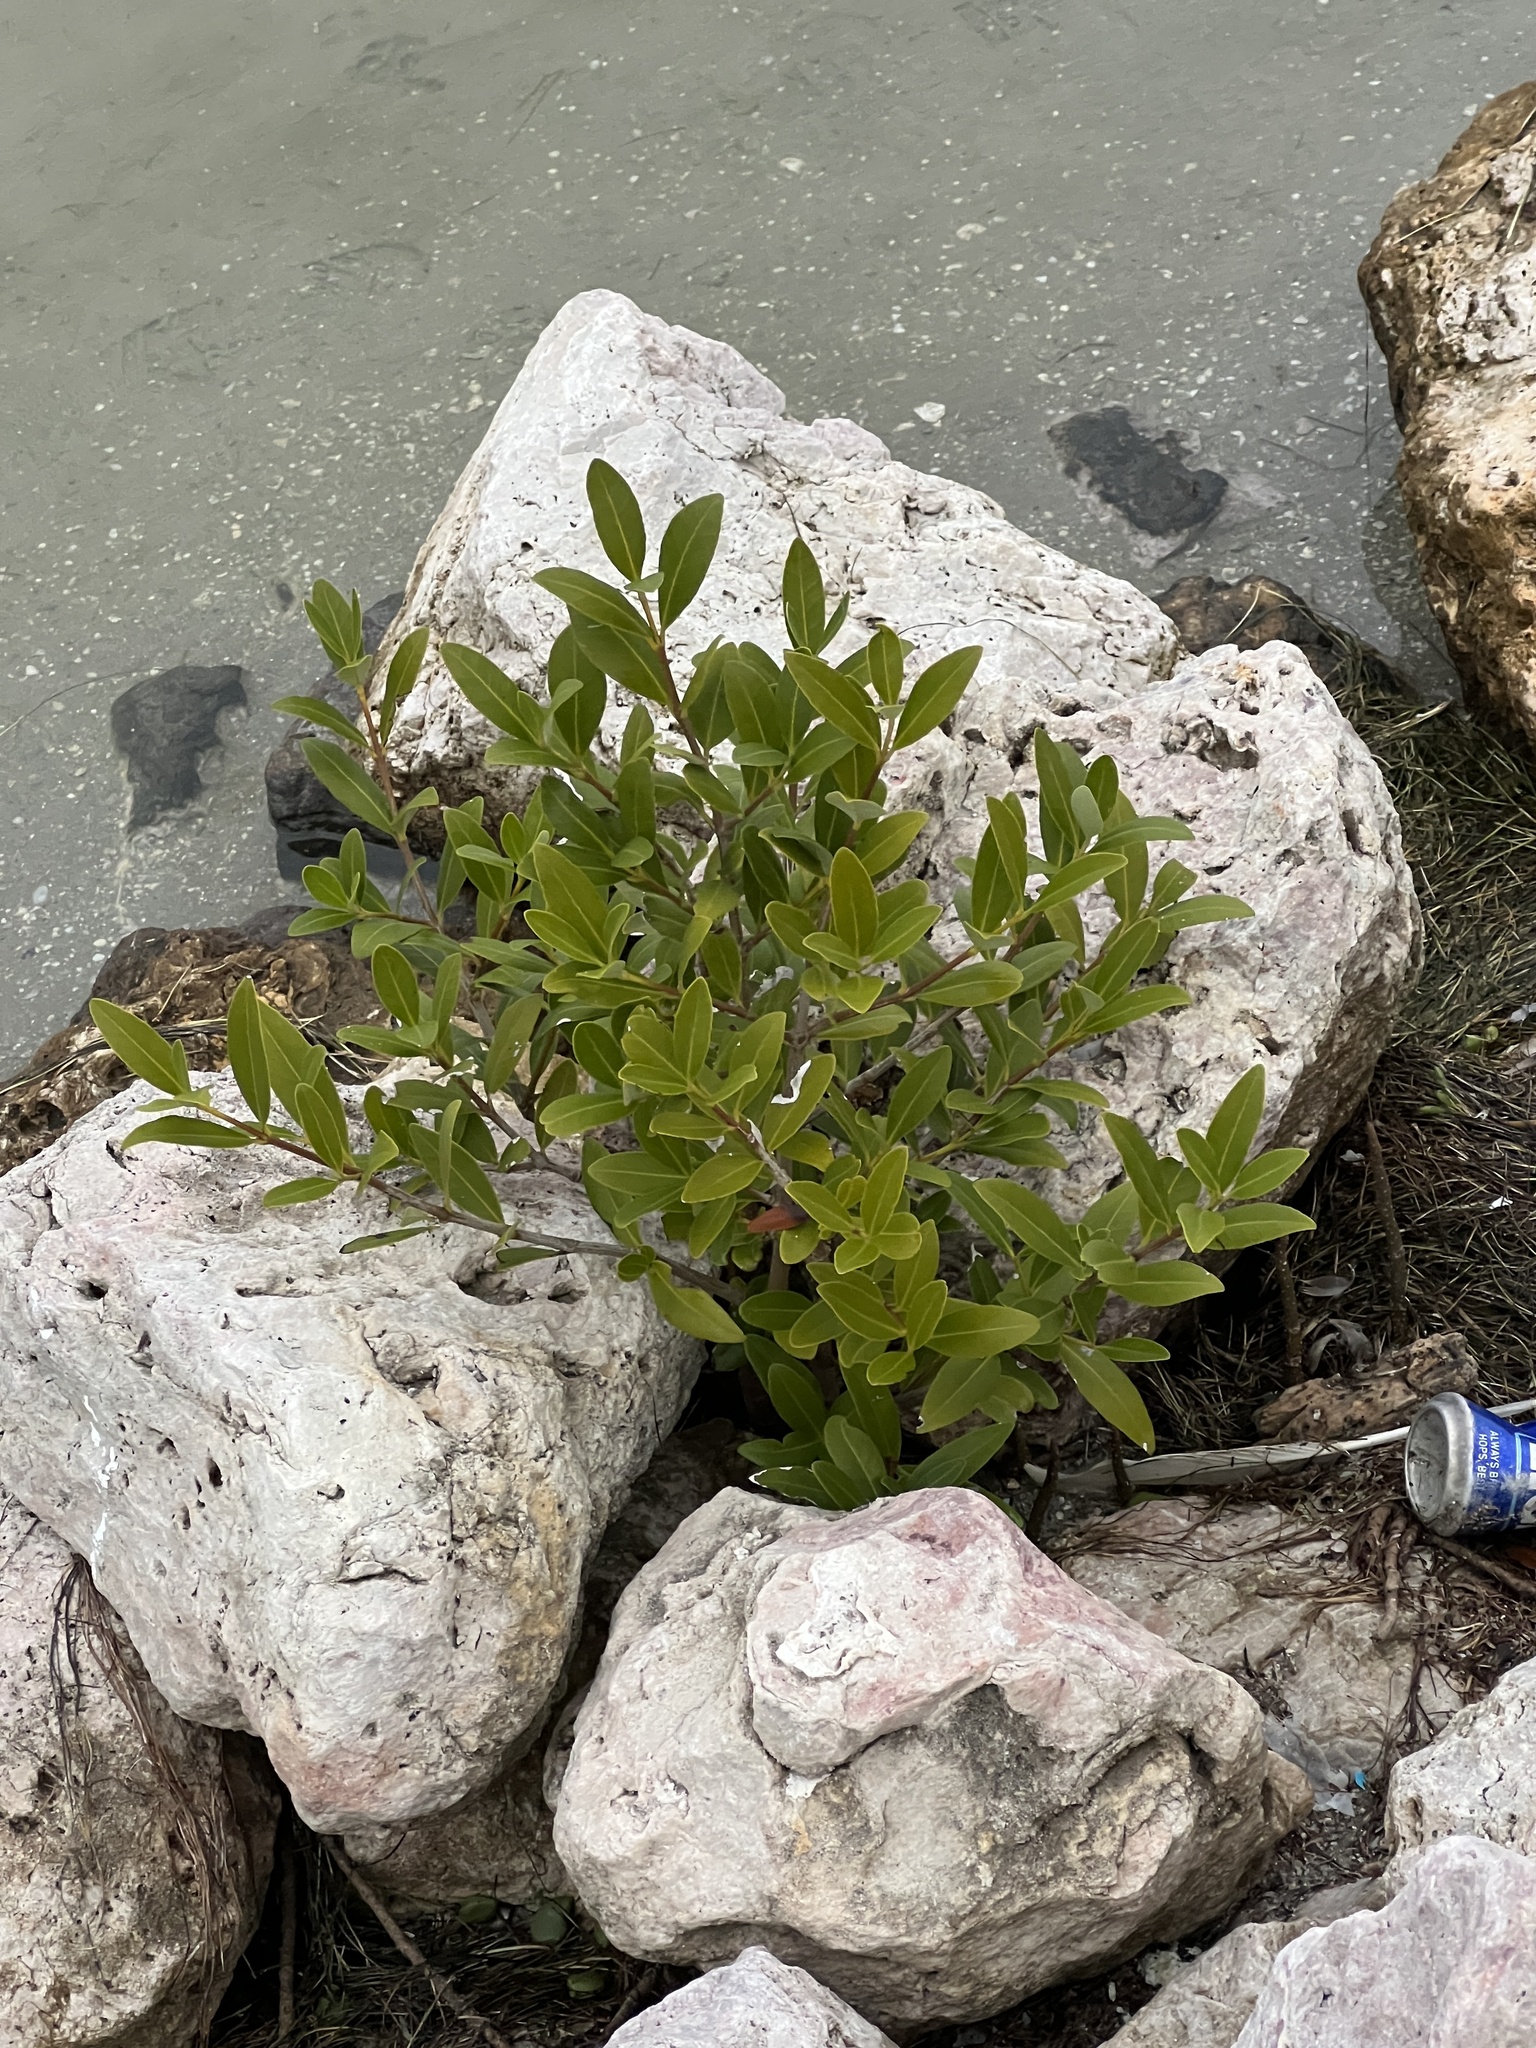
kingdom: Plantae
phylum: Tracheophyta
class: Magnoliopsida
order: Lamiales
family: Acanthaceae
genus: Avicennia
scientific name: Avicennia germinans
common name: Black mangrove
